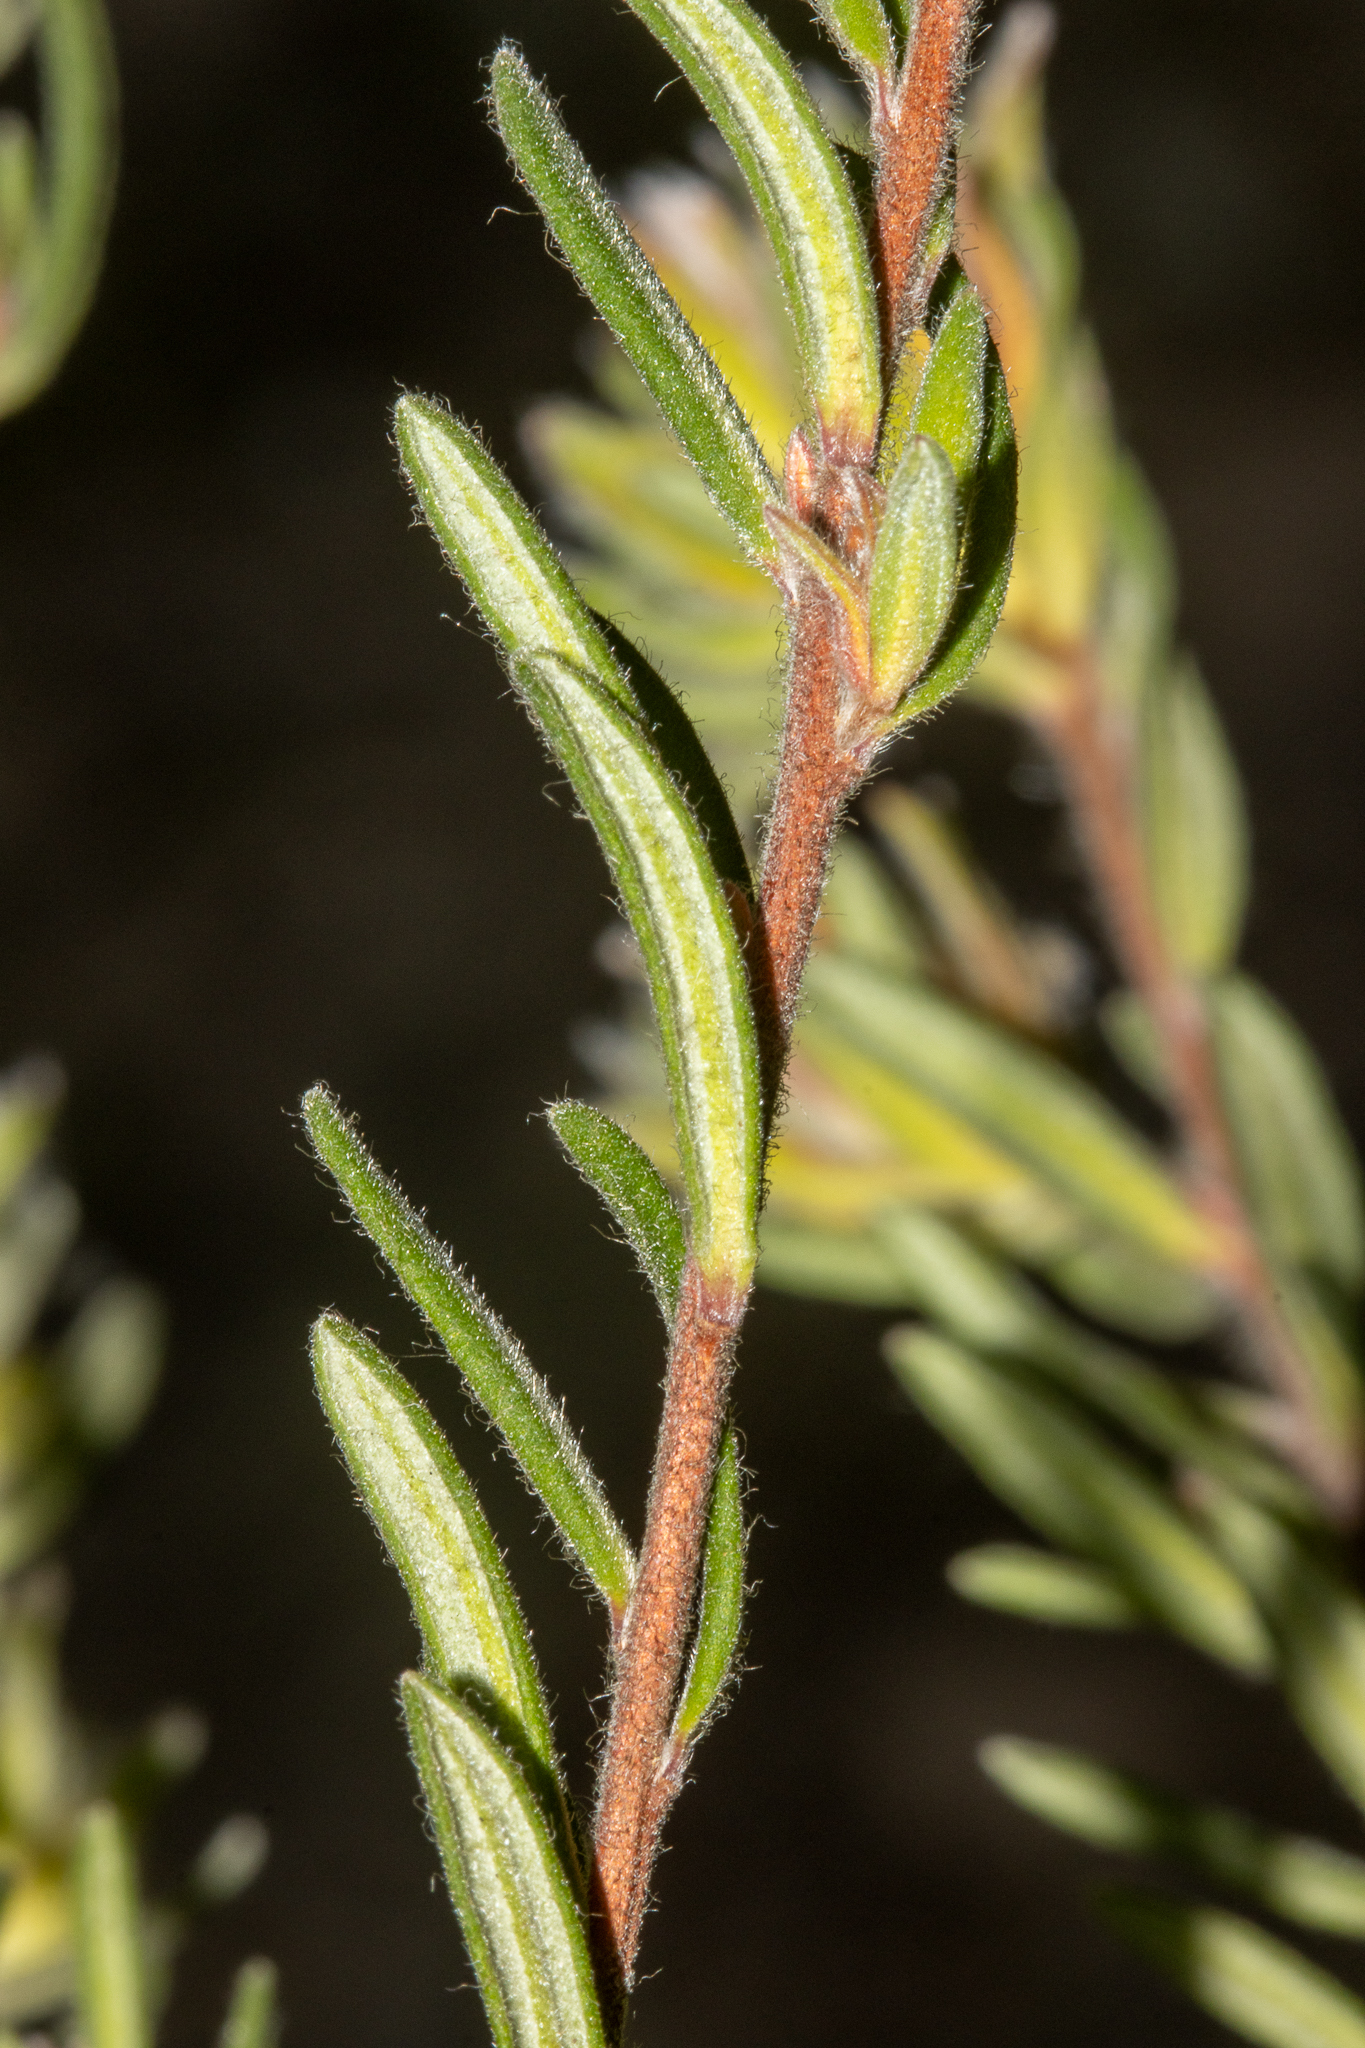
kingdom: Plantae
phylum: Tracheophyta
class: Magnoliopsida
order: Dilleniales
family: Dilleniaceae
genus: Hibbertia
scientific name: Hibbertia crinita
